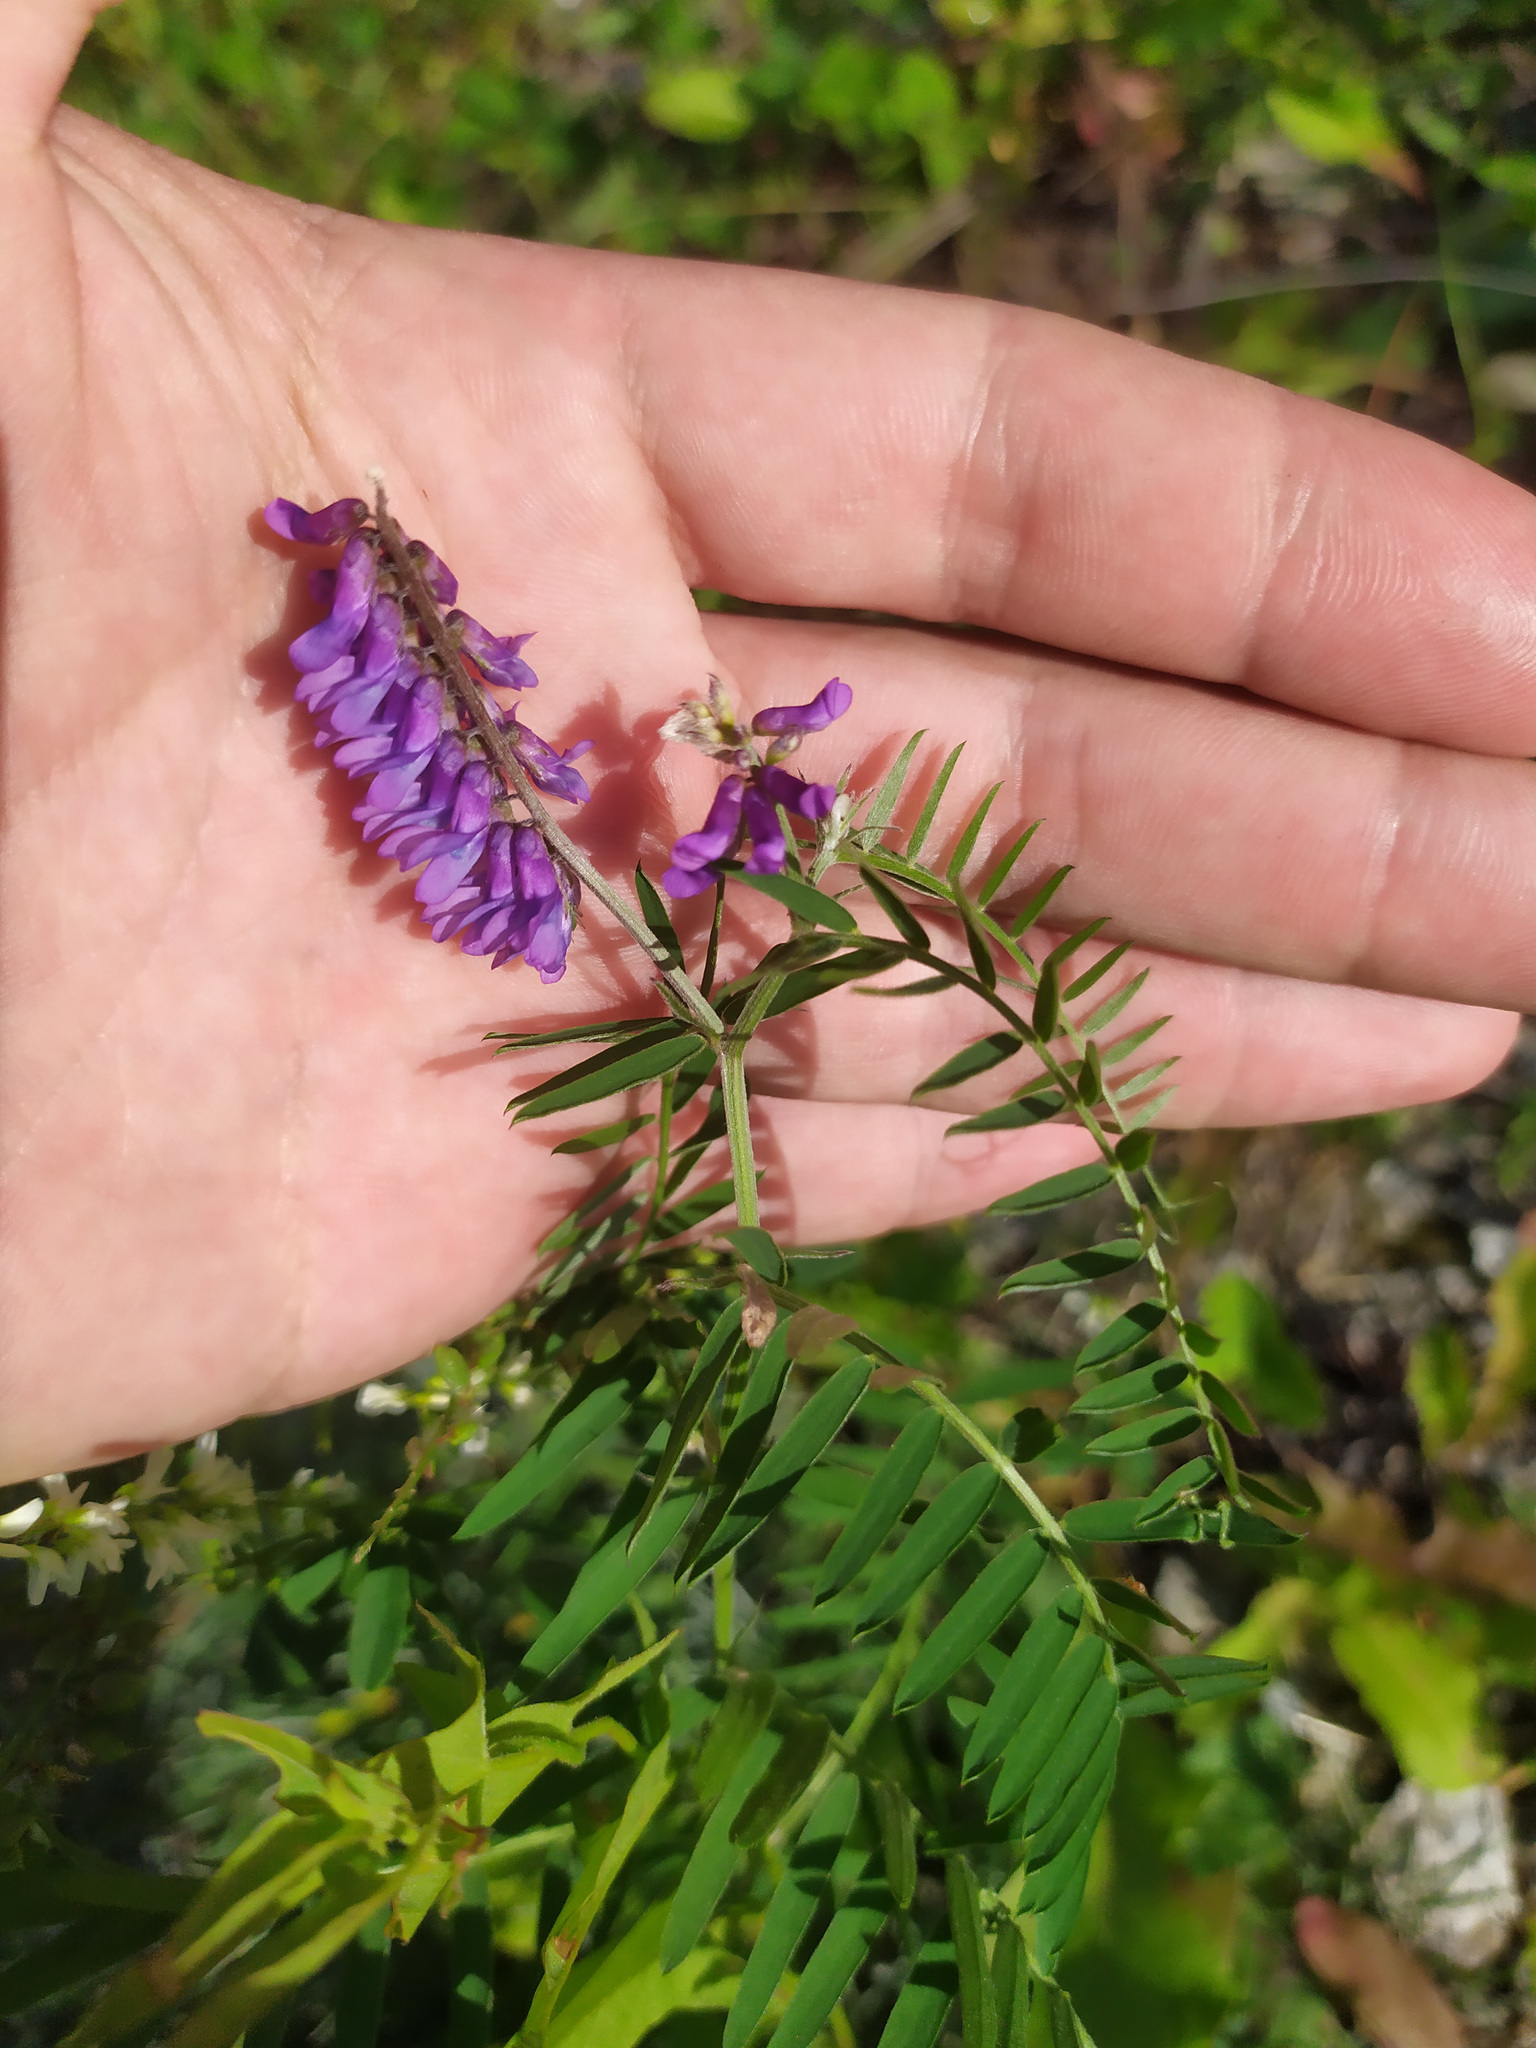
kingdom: Plantae
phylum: Tracheophyta
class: Magnoliopsida
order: Fabales
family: Fabaceae
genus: Vicia
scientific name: Vicia cracca
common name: Bird vetch
